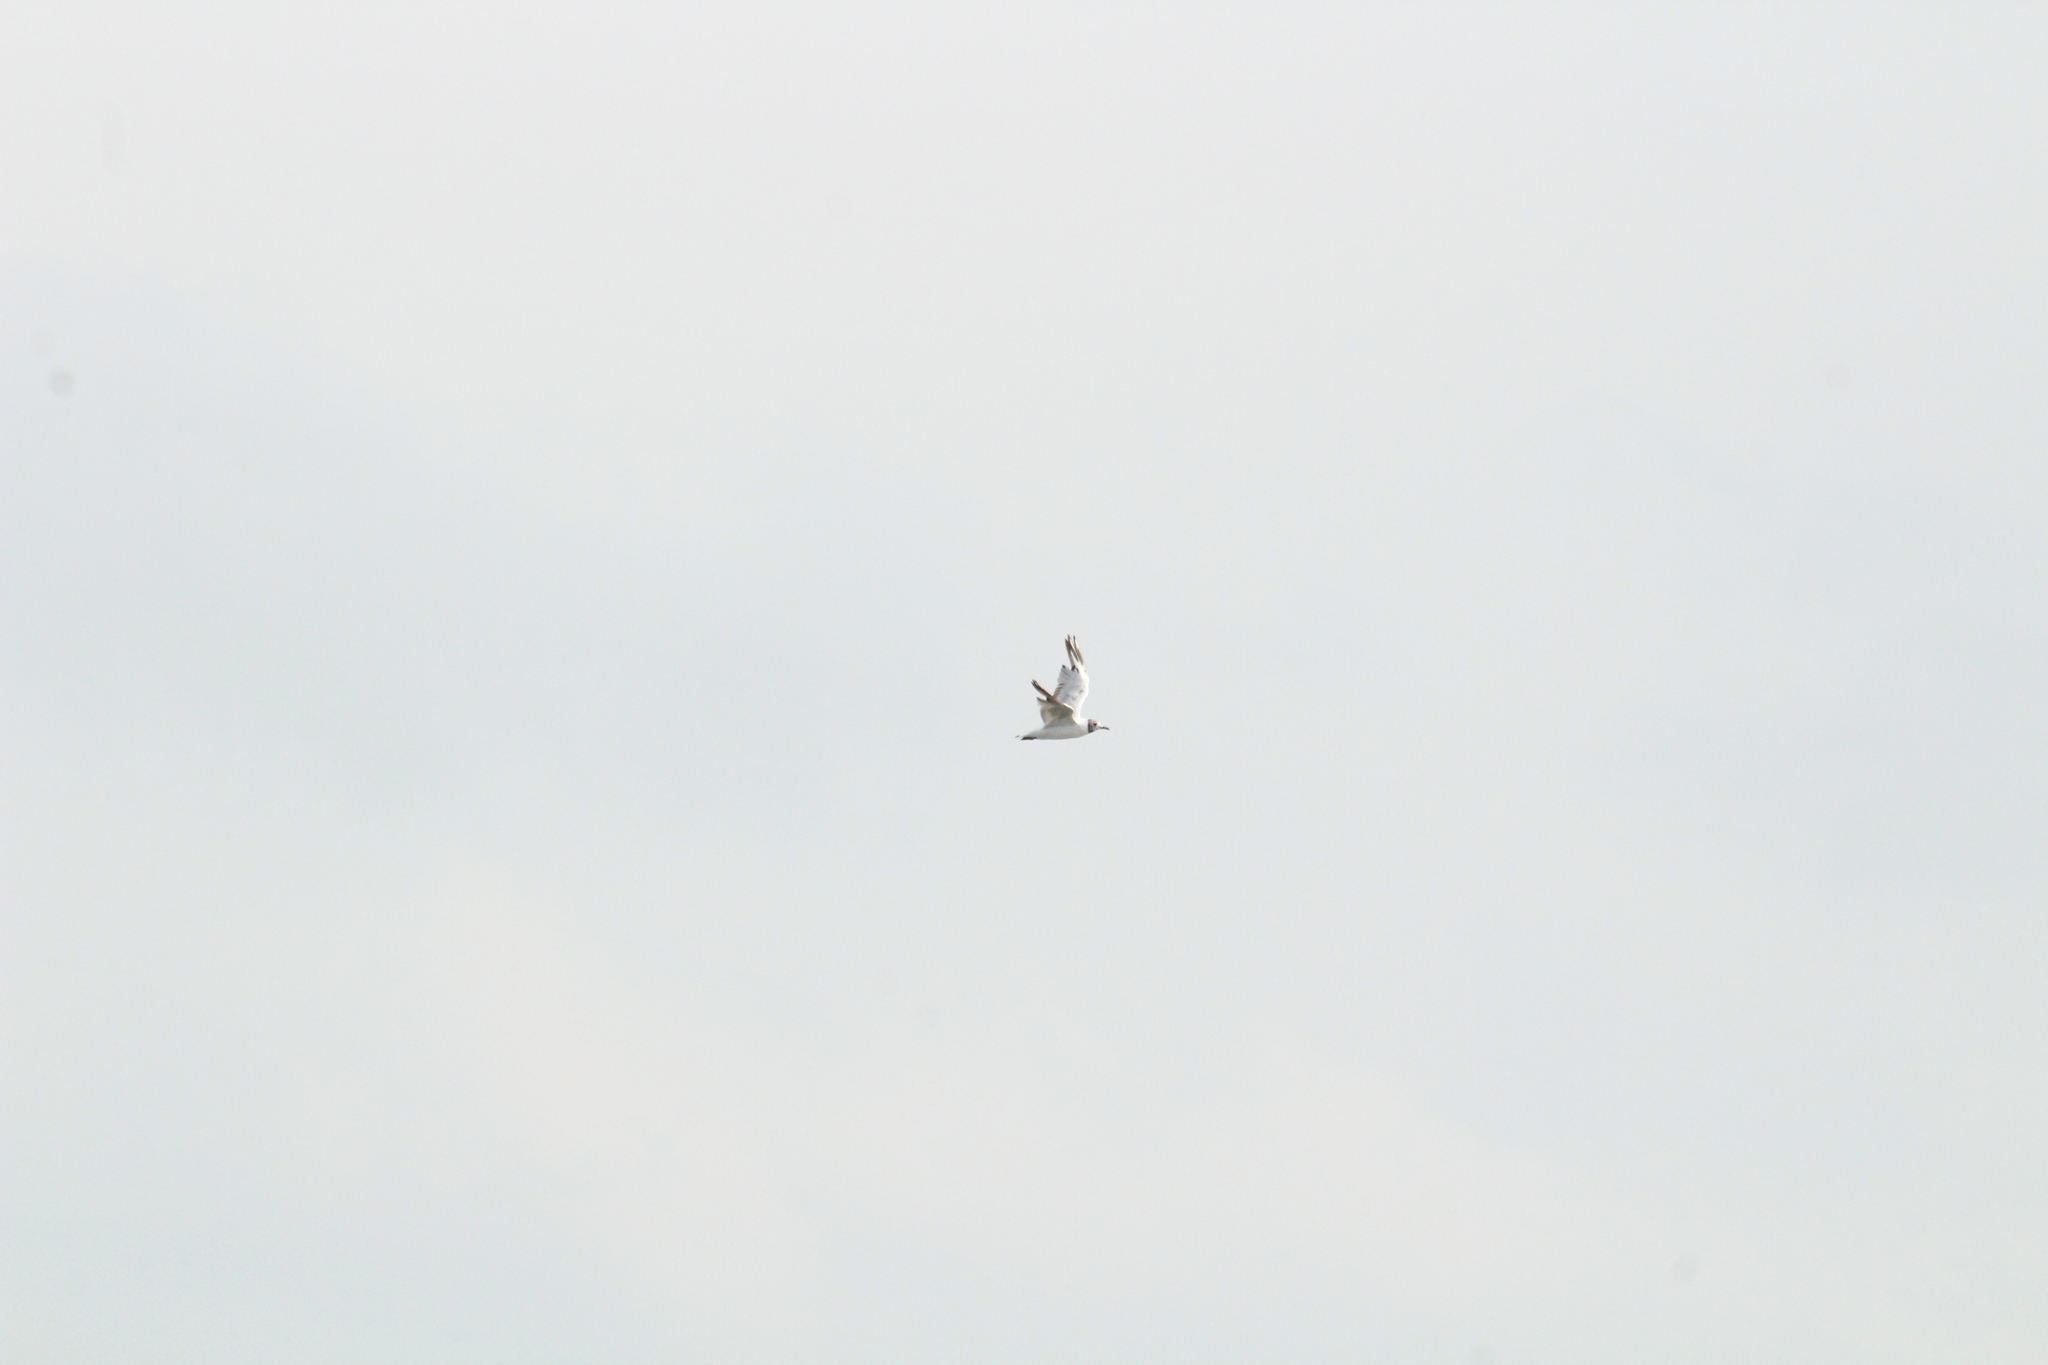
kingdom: Animalia
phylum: Chordata
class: Aves
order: Charadriiformes
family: Laridae
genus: Chroicocephalus
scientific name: Chroicocephalus ridibundus
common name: Black-headed gull
